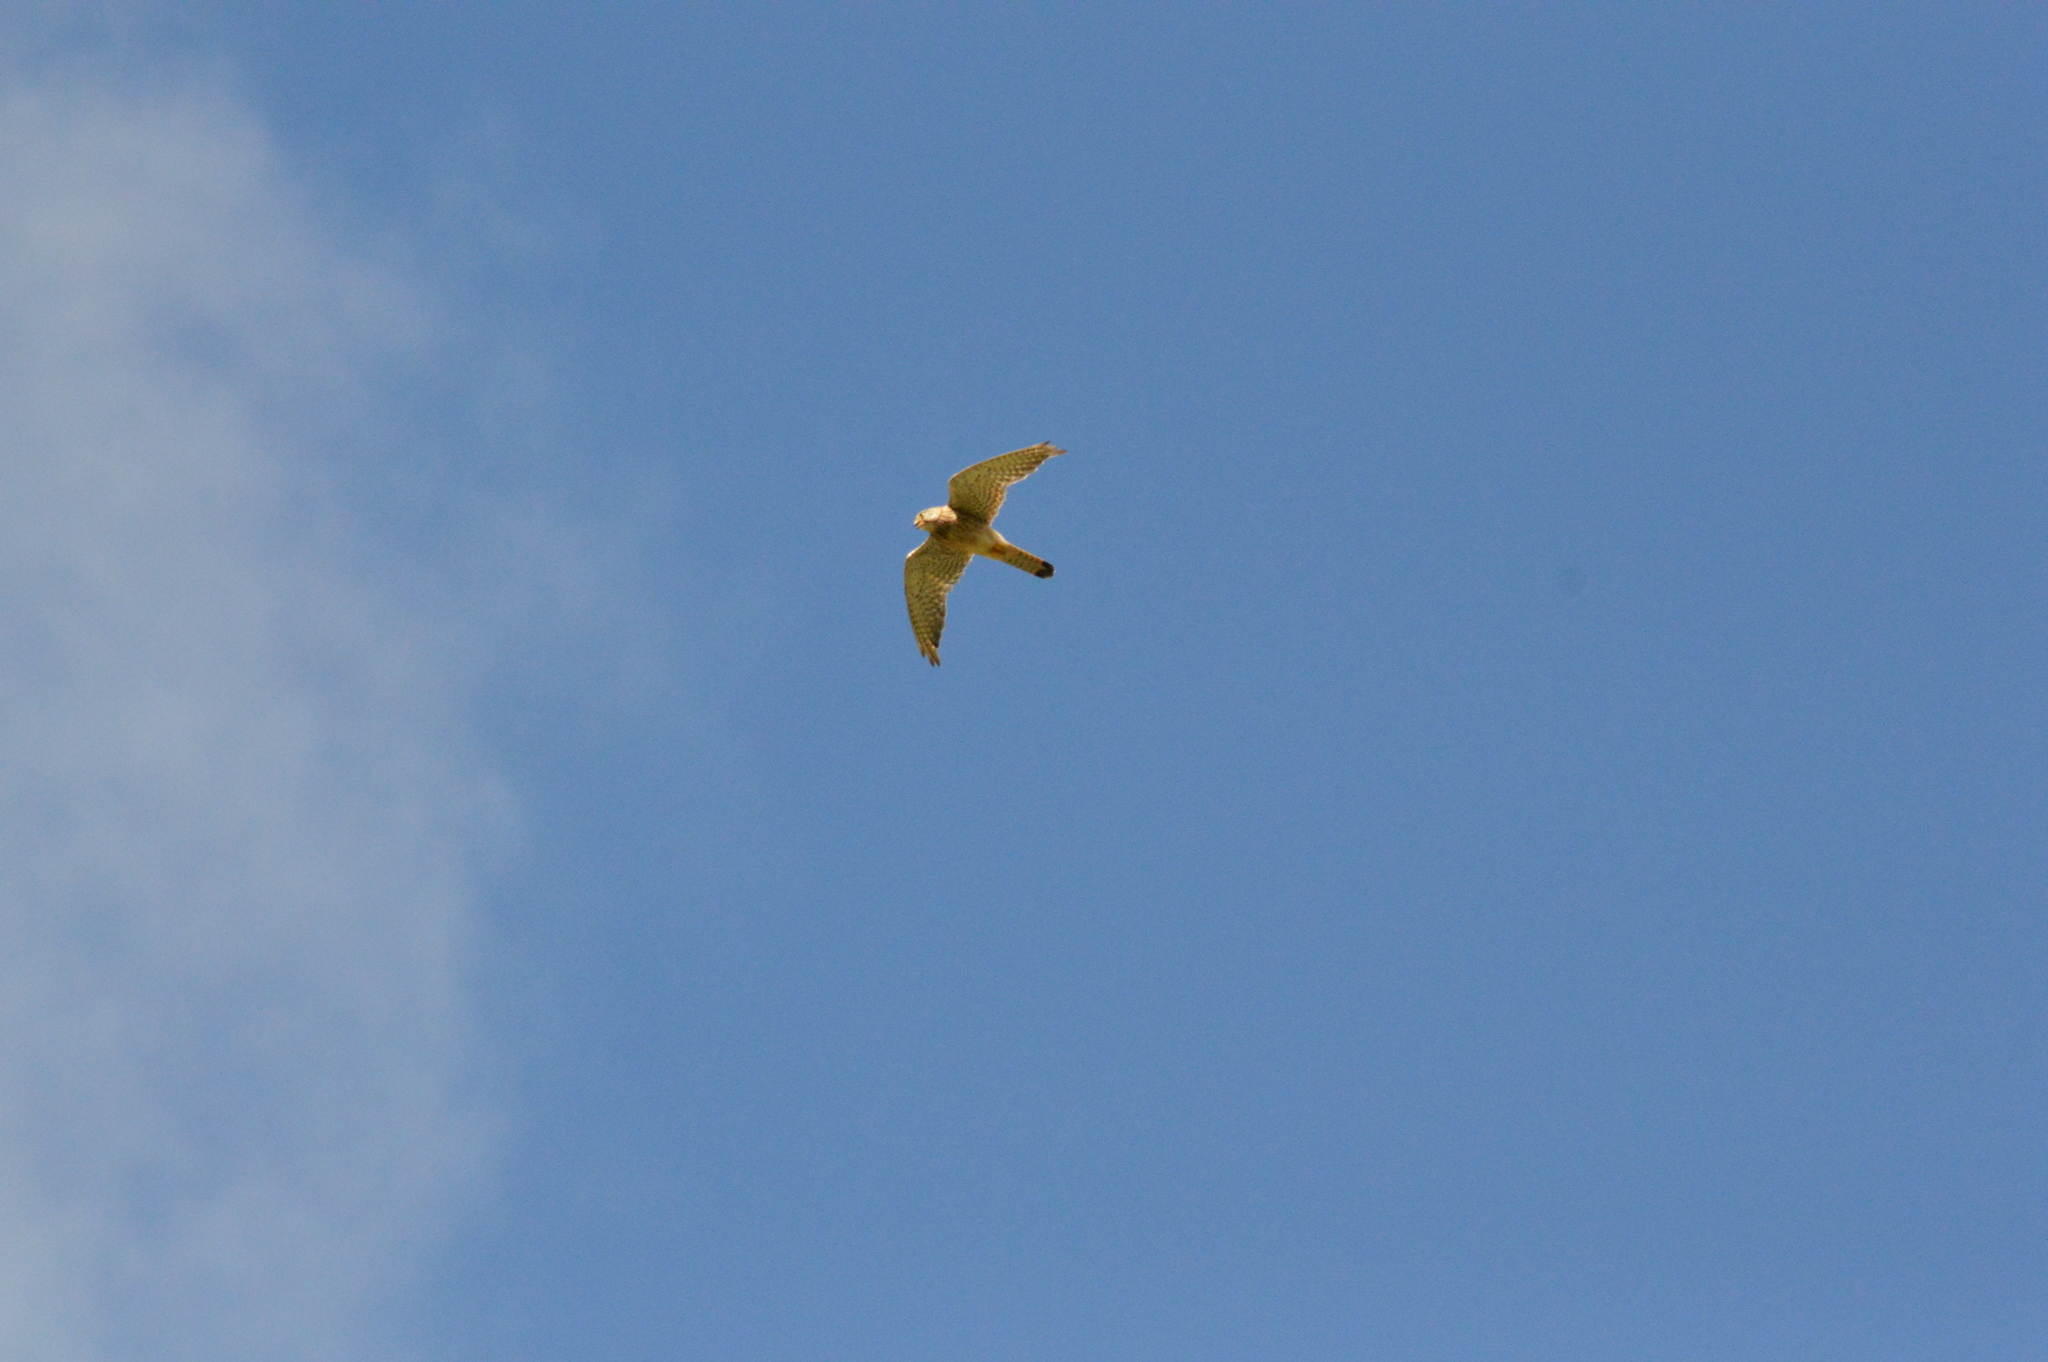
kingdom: Animalia
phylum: Chordata
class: Aves
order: Falconiformes
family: Falconidae
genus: Falco
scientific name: Falco tinnunculus
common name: Common kestrel
